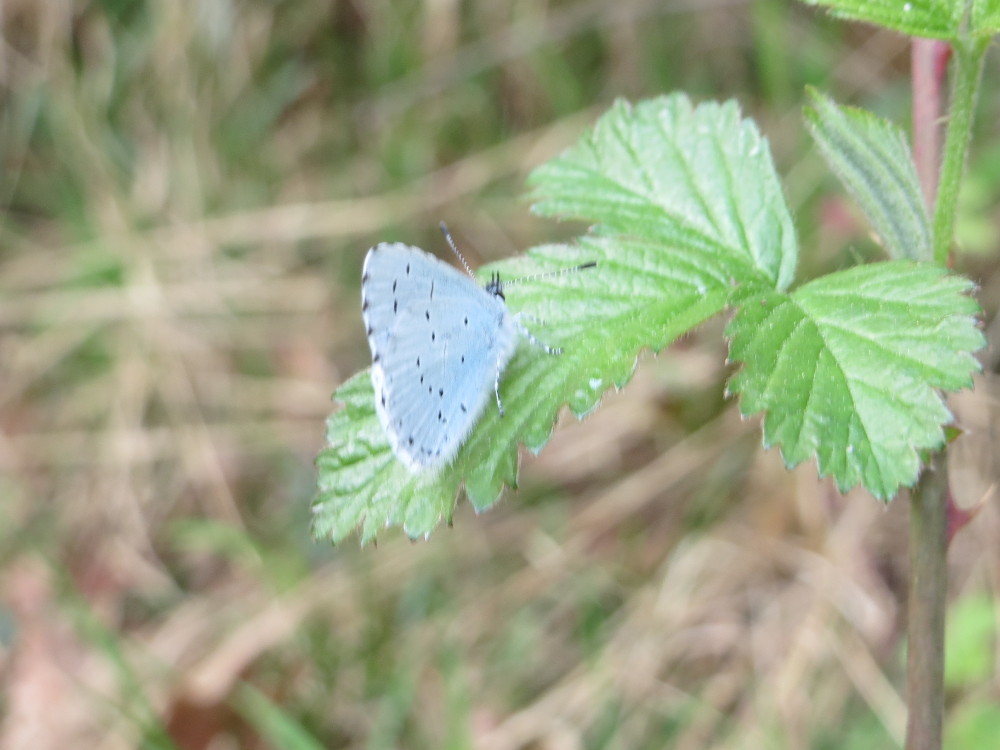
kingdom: Animalia
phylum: Arthropoda
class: Insecta
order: Lepidoptera
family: Lycaenidae
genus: Celastrina
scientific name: Celastrina argiolus
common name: Holly blue
